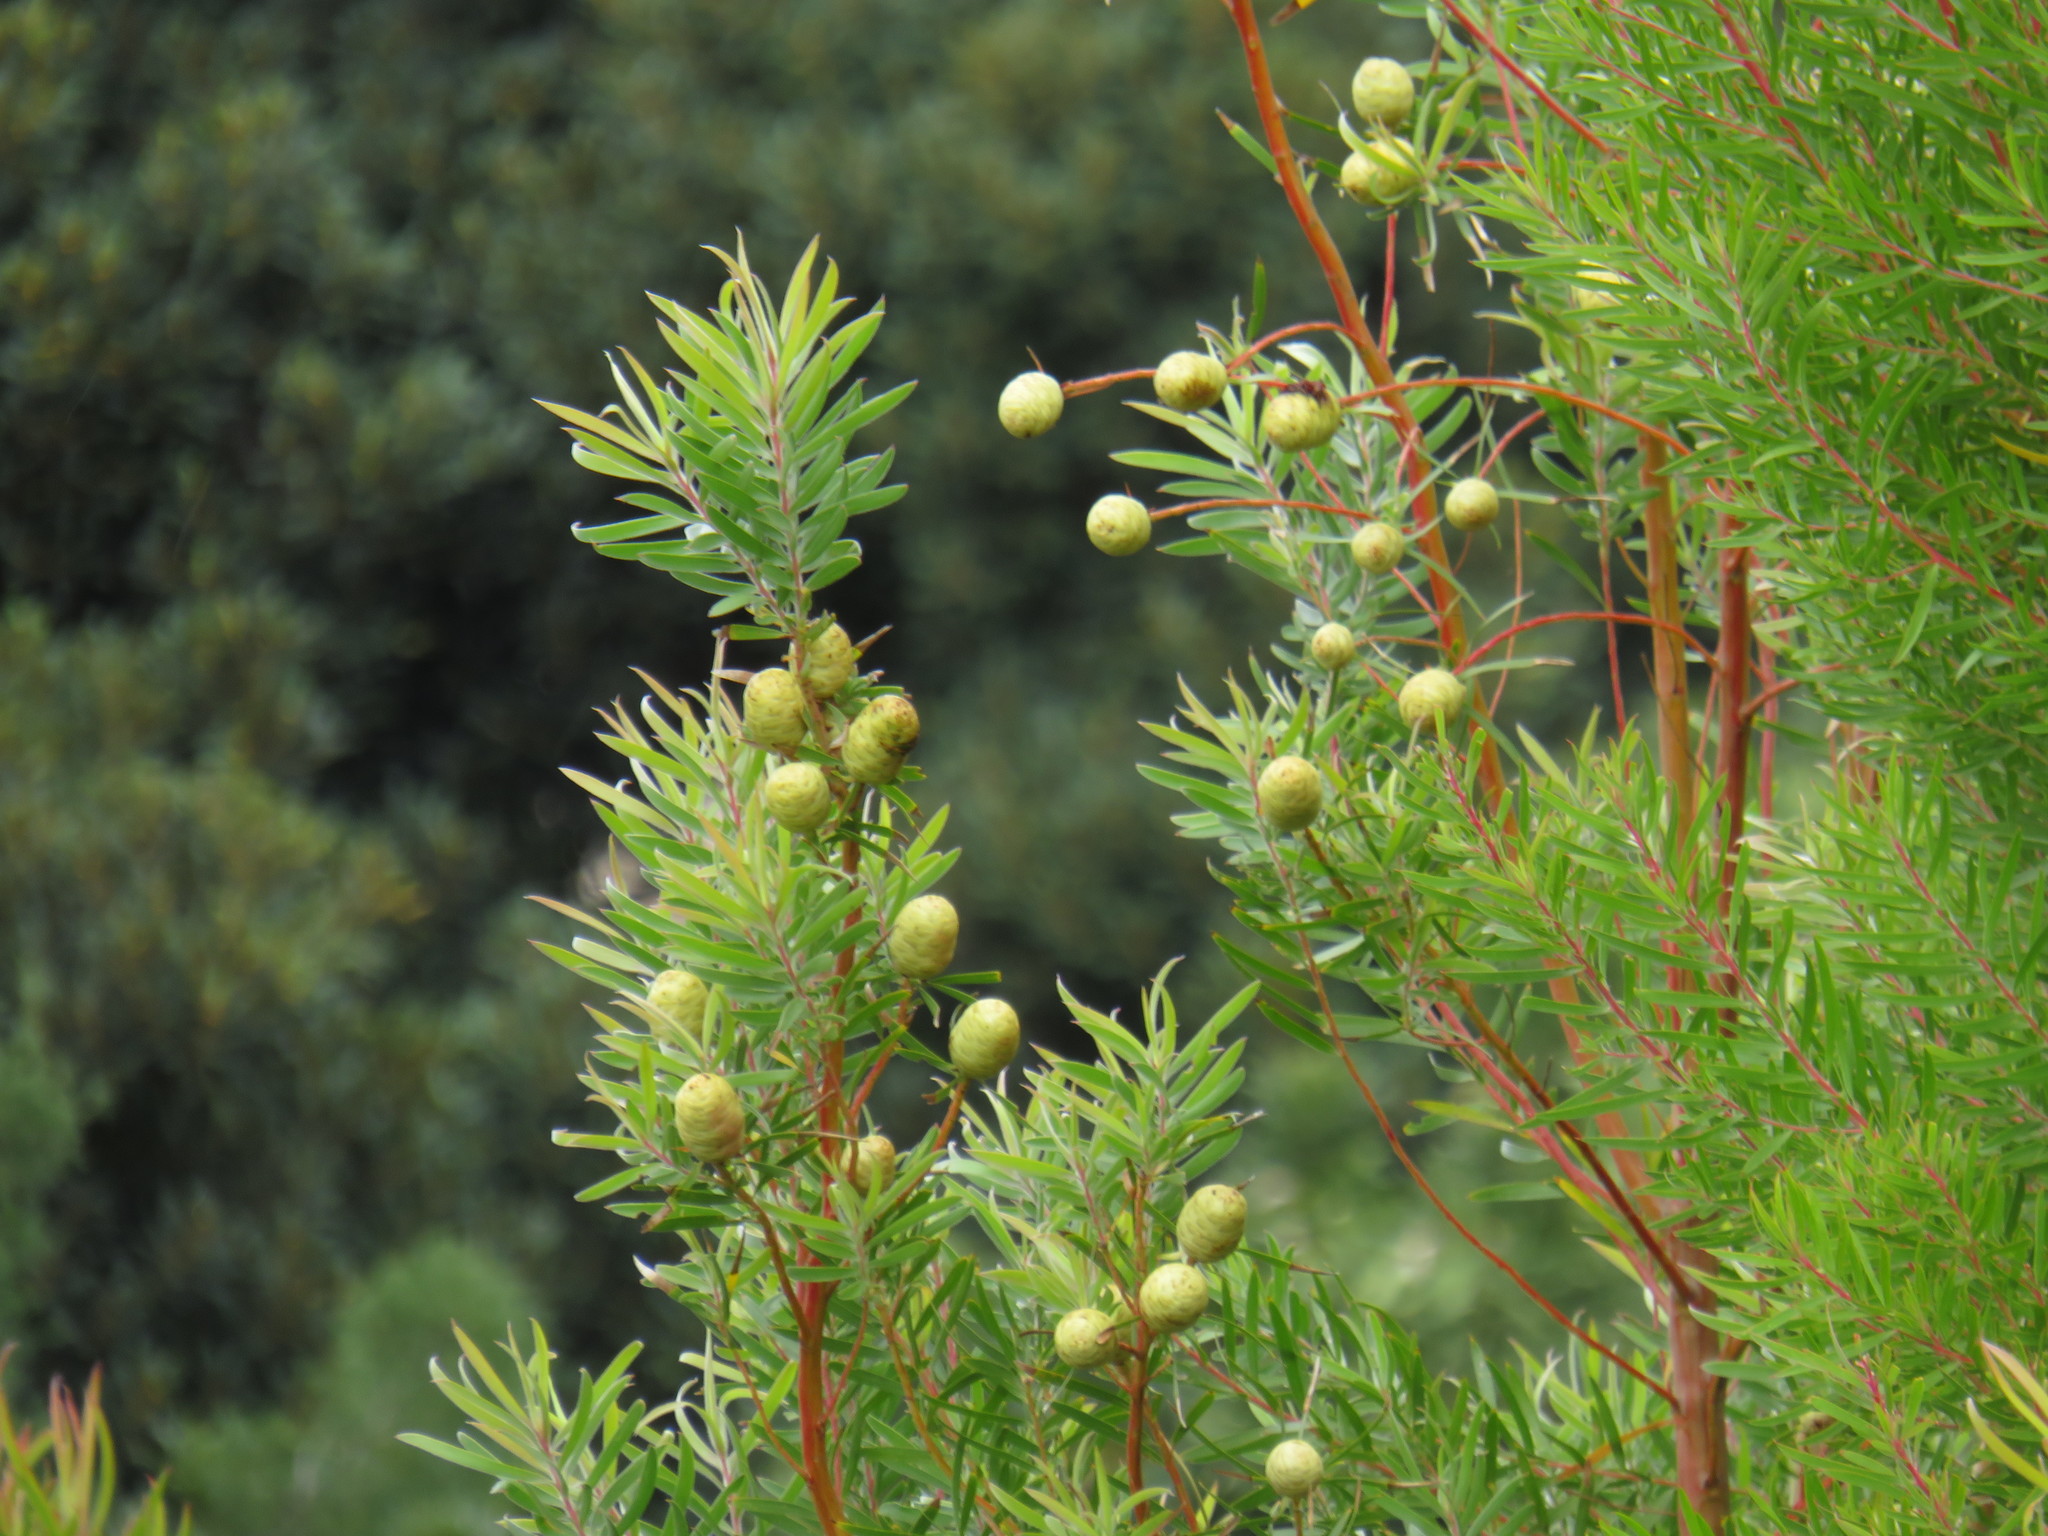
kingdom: Plantae
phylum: Tracheophyta
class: Magnoliopsida
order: Proteales
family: Proteaceae
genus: Leucadendron
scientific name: Leucadendron salicifolium
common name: Common stream conebush
